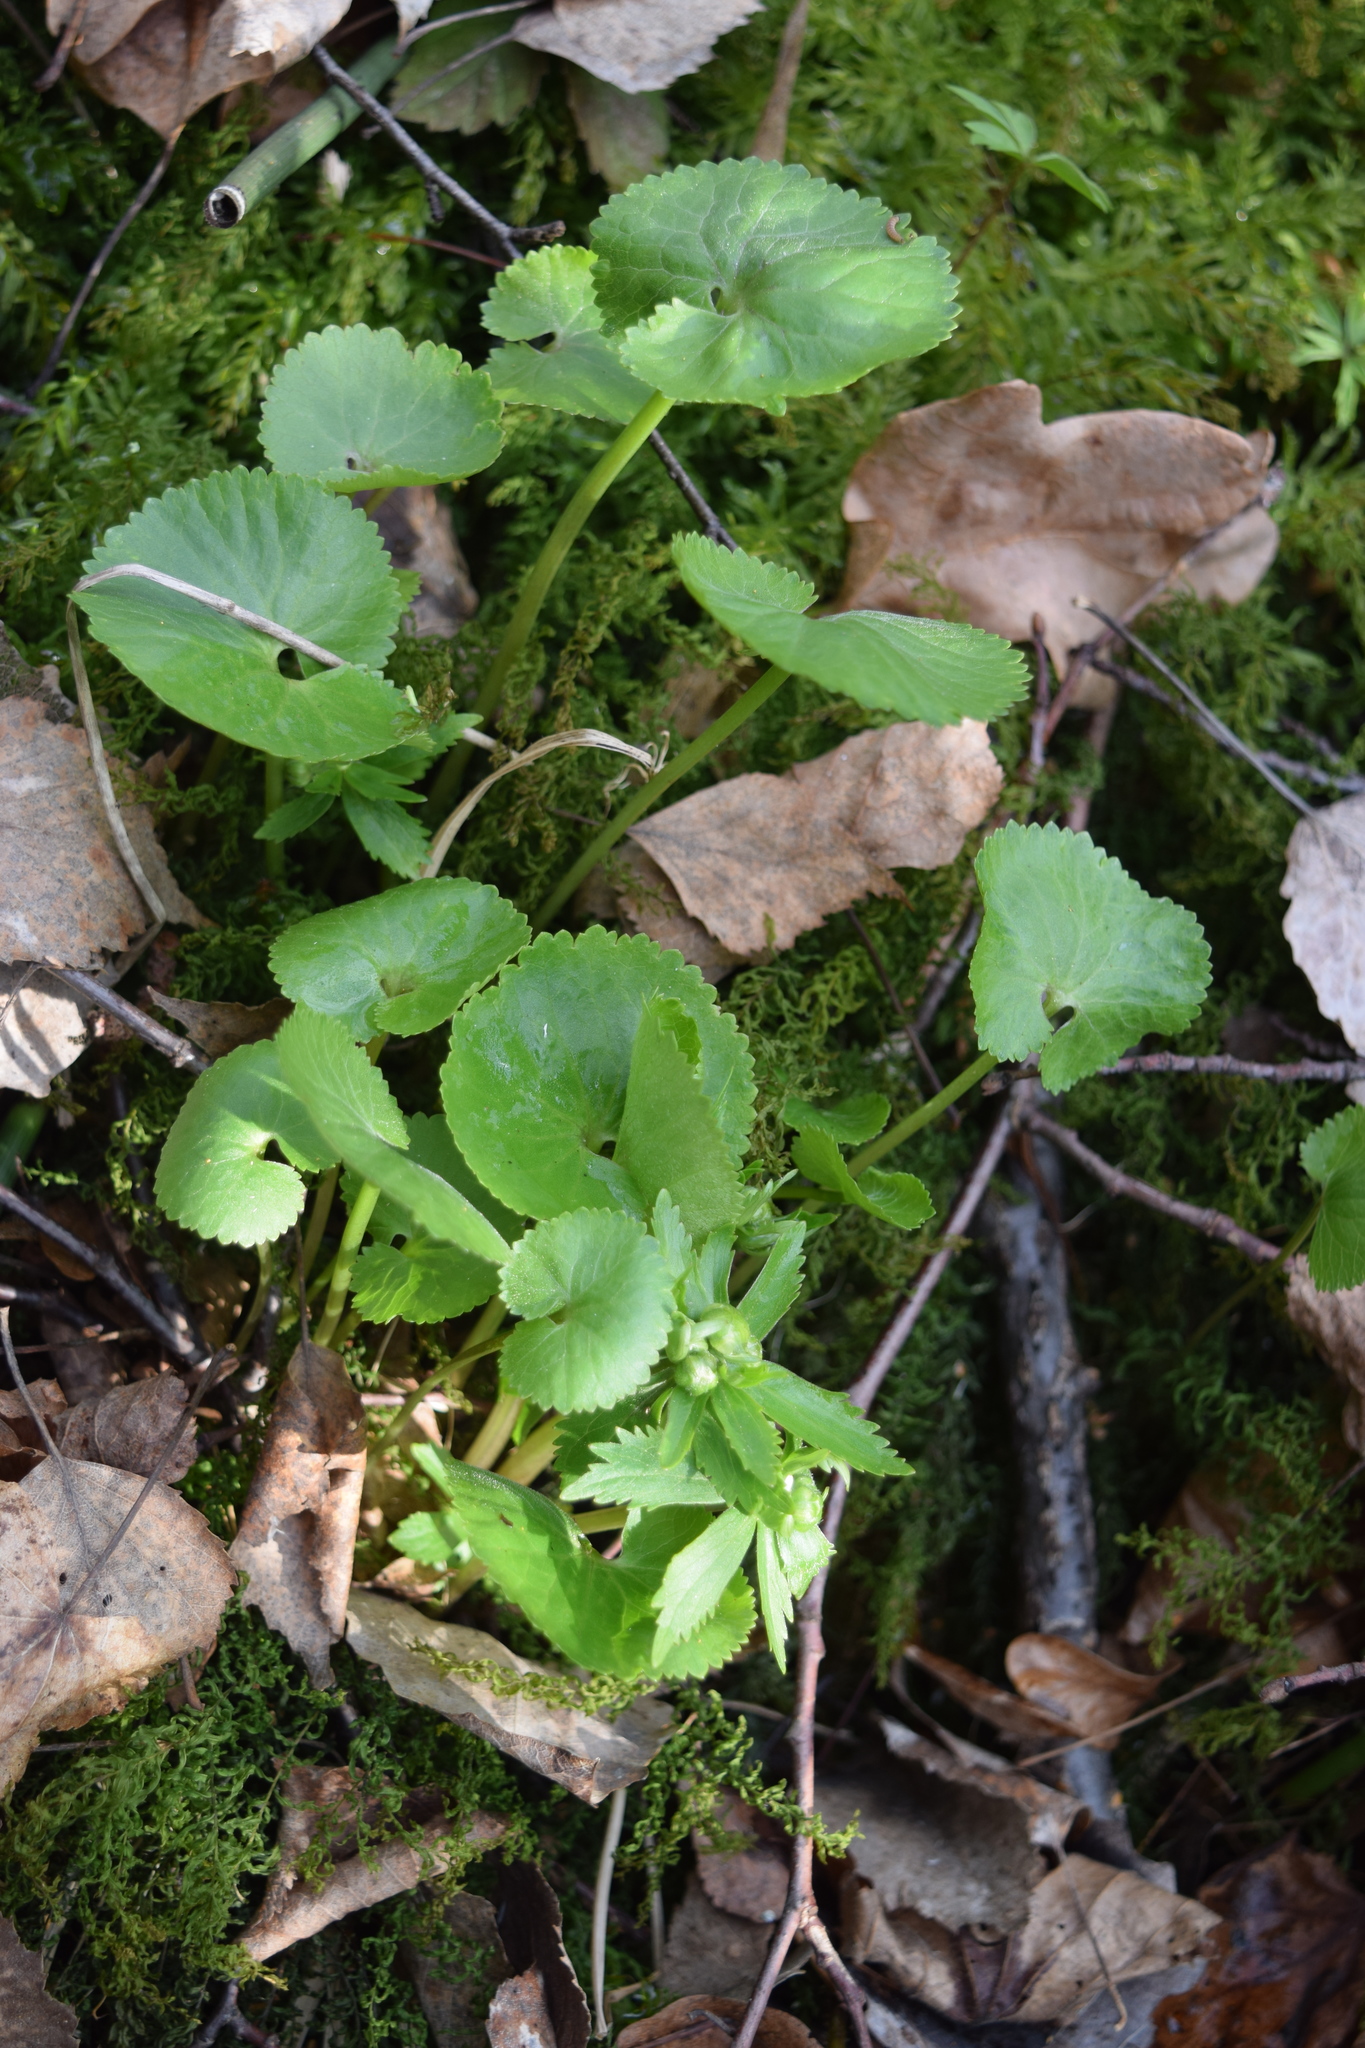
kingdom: Plantae
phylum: Tracheophyta
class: Magnoliopsida
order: Ranunculales
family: Ranunculaceae
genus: Ranunculus
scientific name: Ranunculus cassubicus
